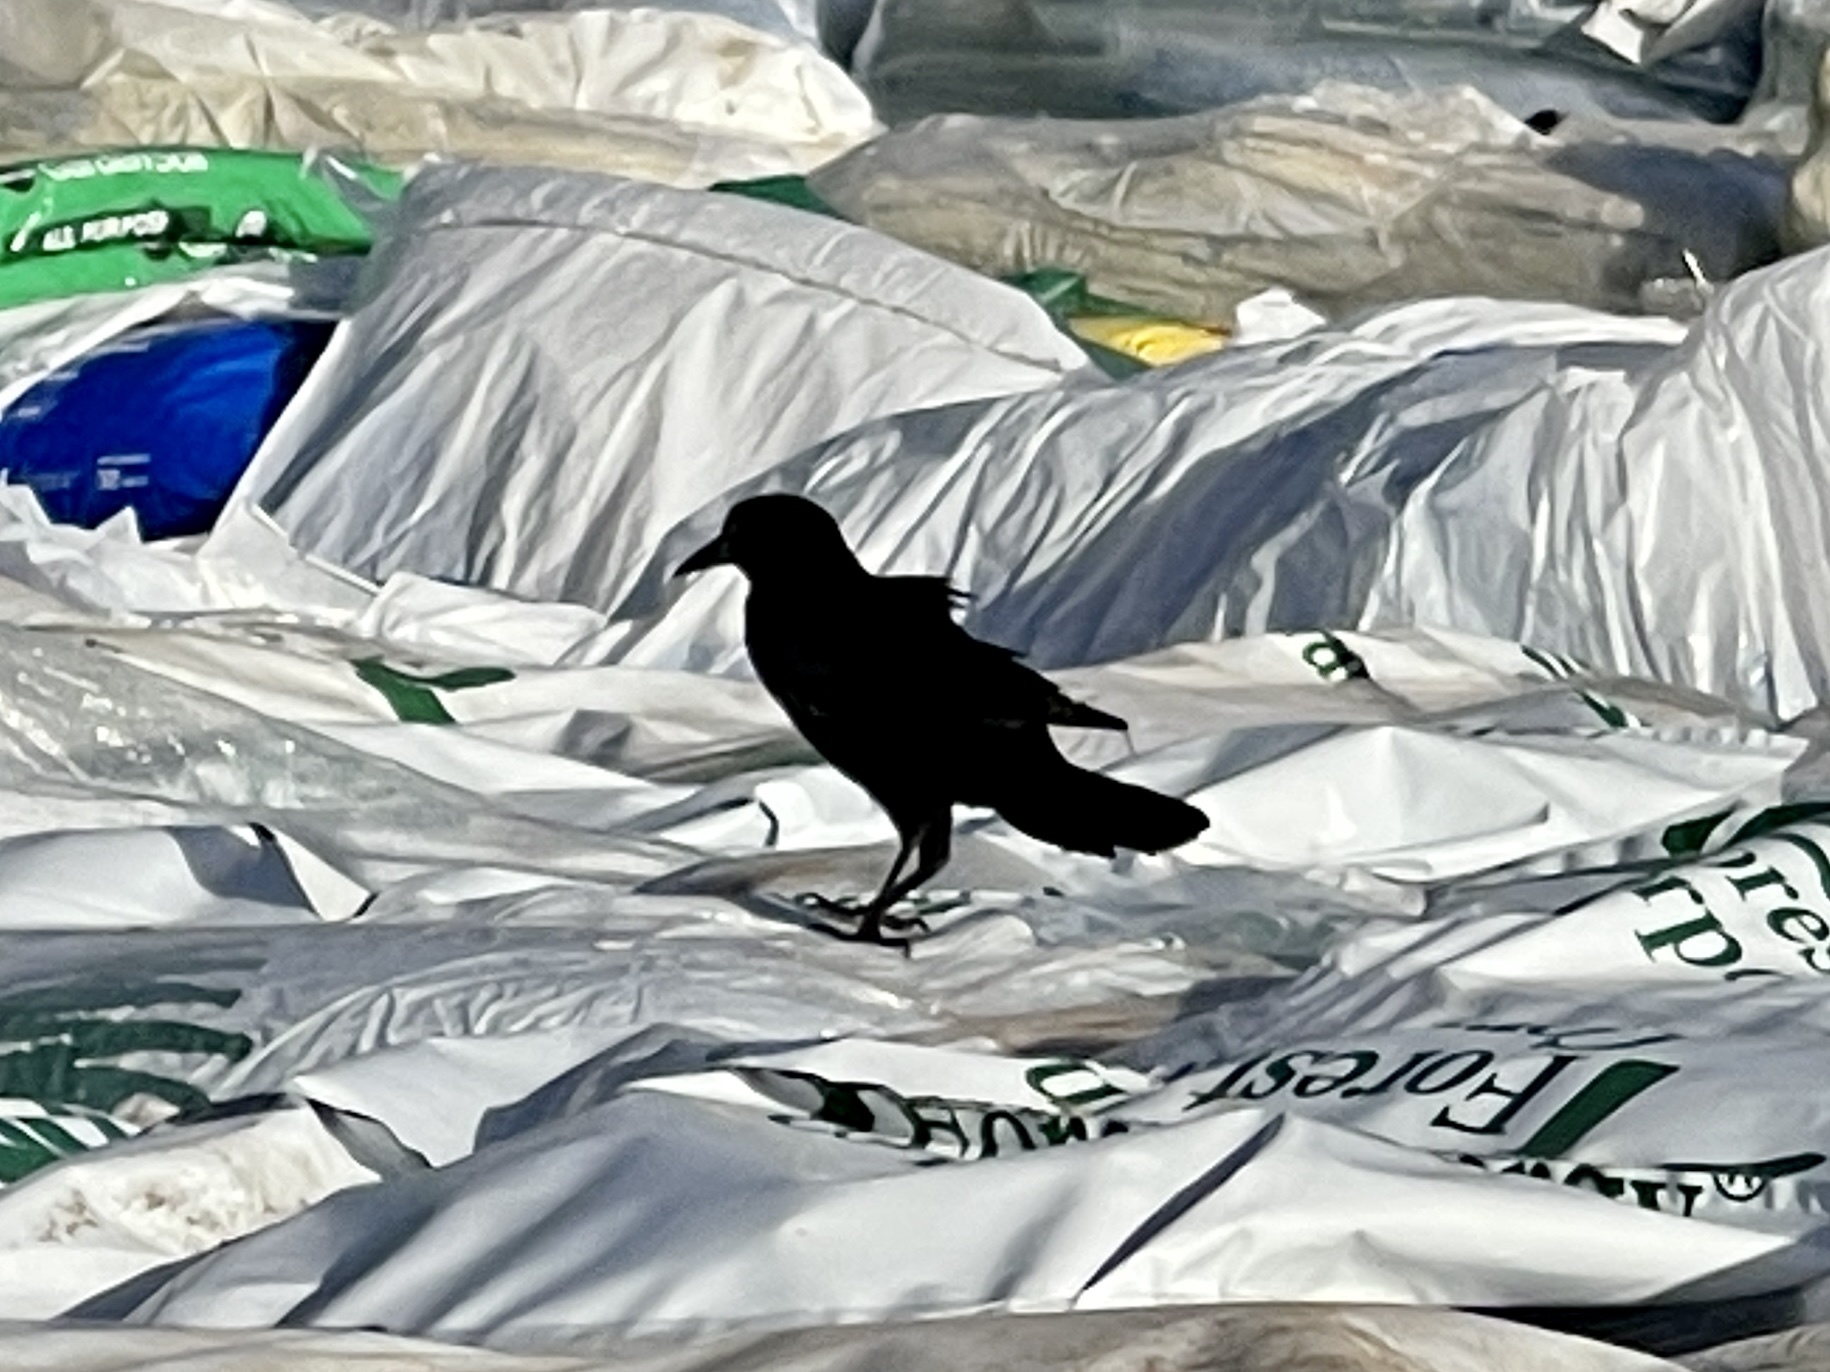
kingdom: Animalia
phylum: Chordata
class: Aves
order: Passeriformes
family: Icteridae
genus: Quiscalus
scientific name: Quiscalus mexicanus
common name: Great-tailed grackle
